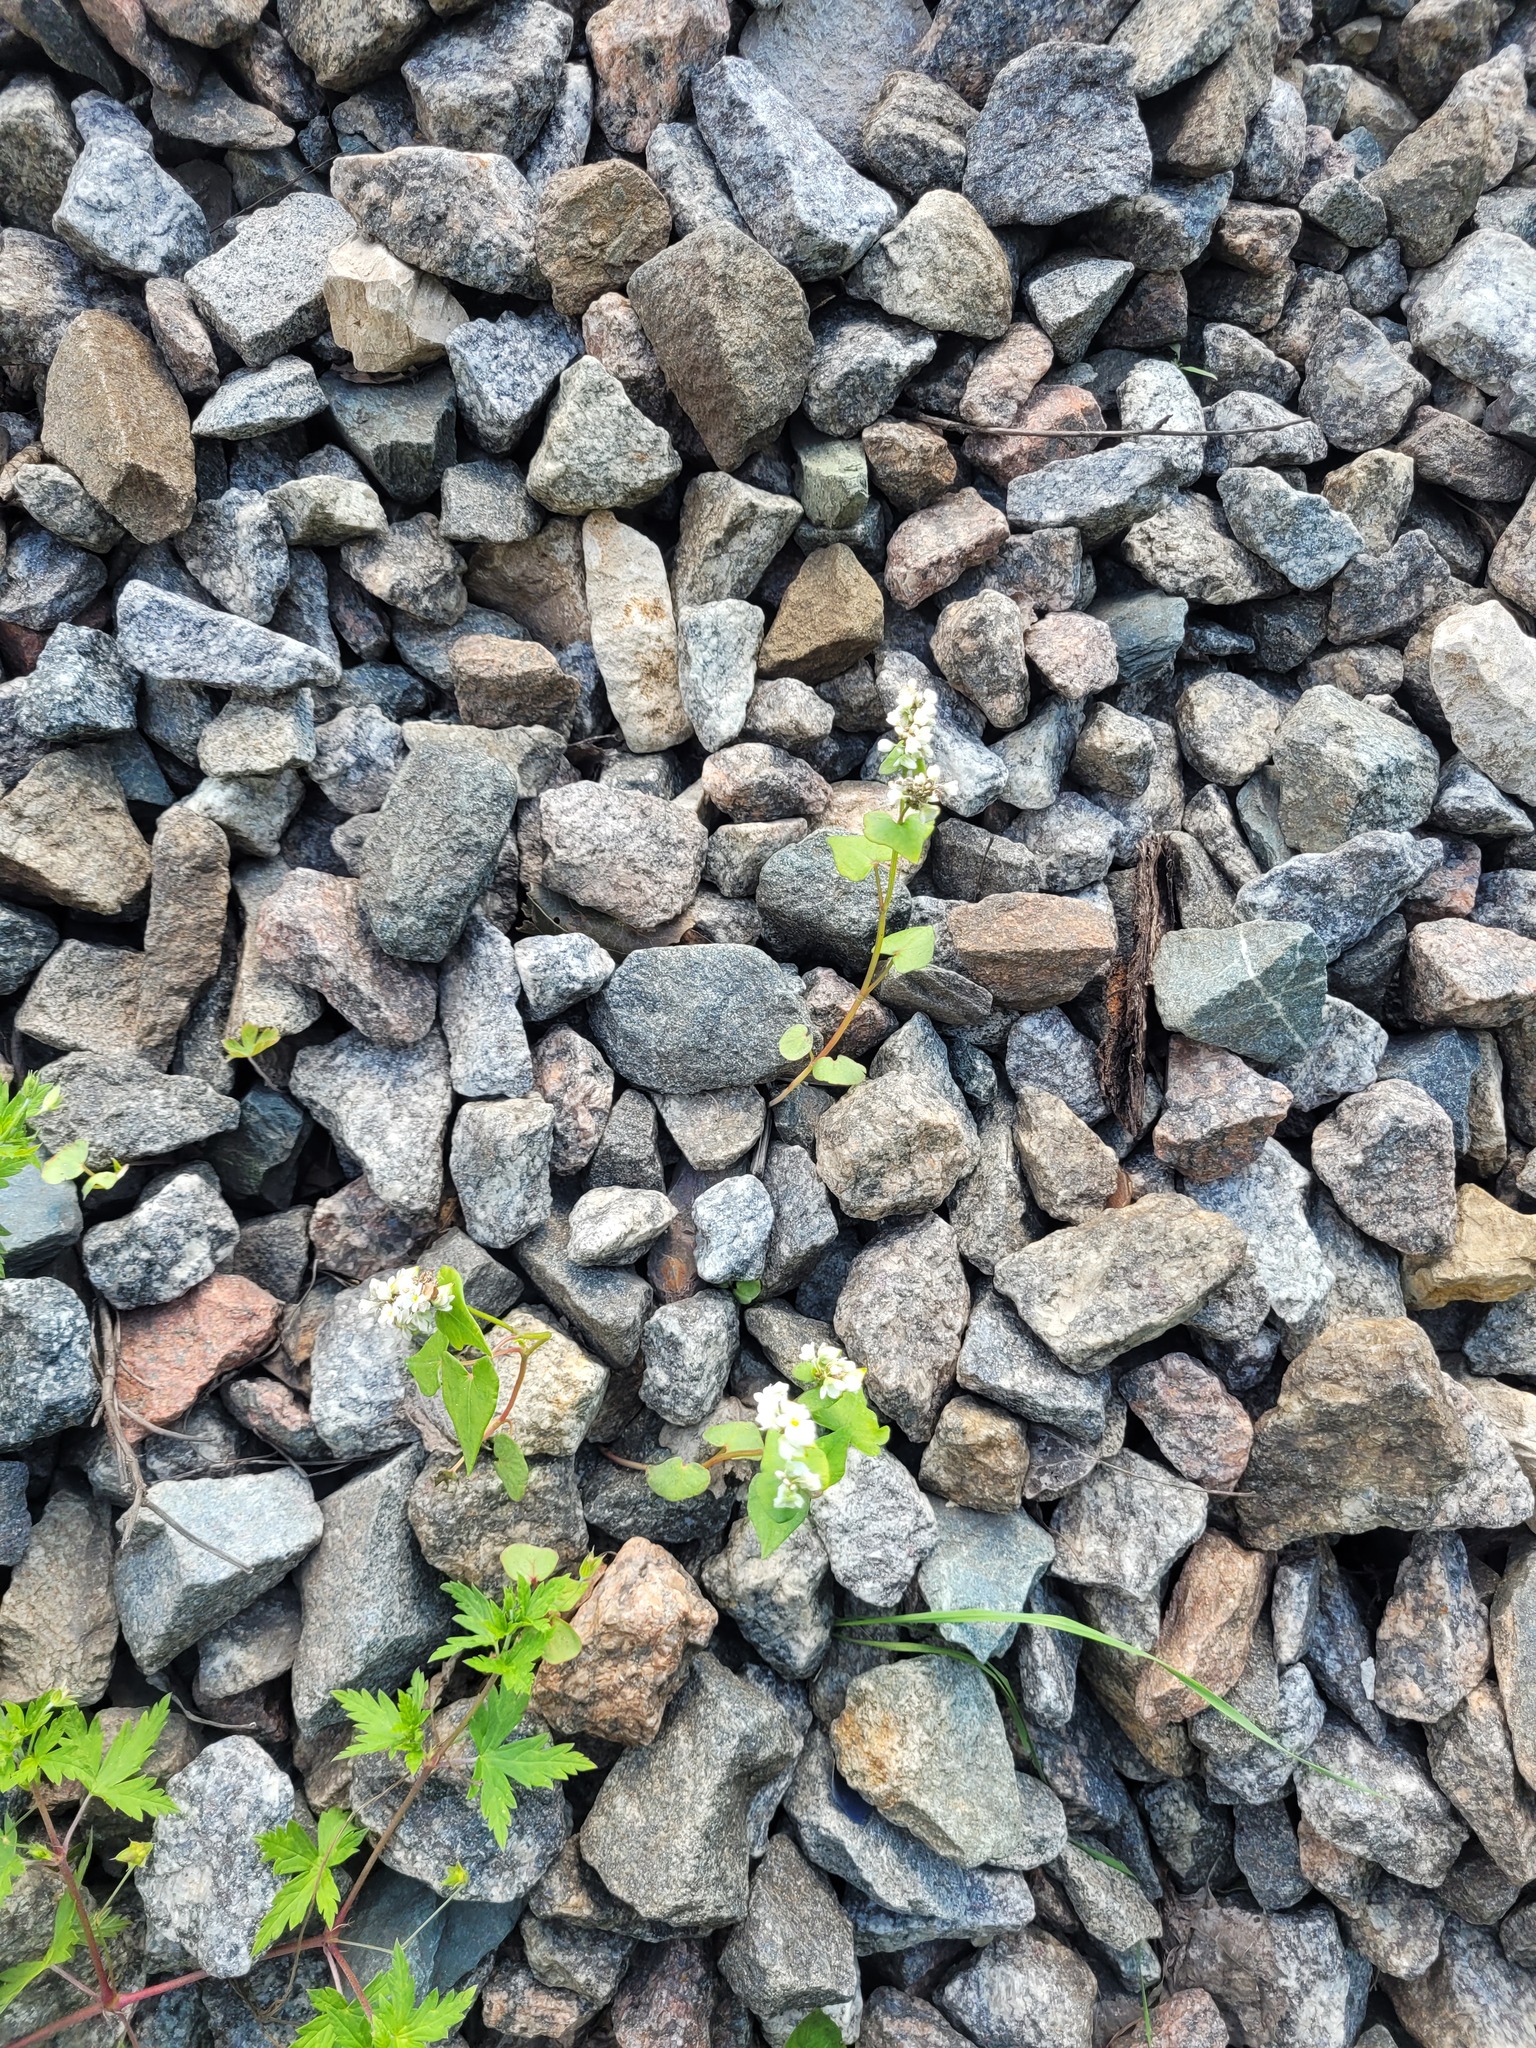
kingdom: Plantae
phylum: Tracheophyta
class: Magnoliopsida
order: Caryophyllales
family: Polygonaceae
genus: Fagopyrum
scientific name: Fagopyrum esculentum
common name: Buckwheat
